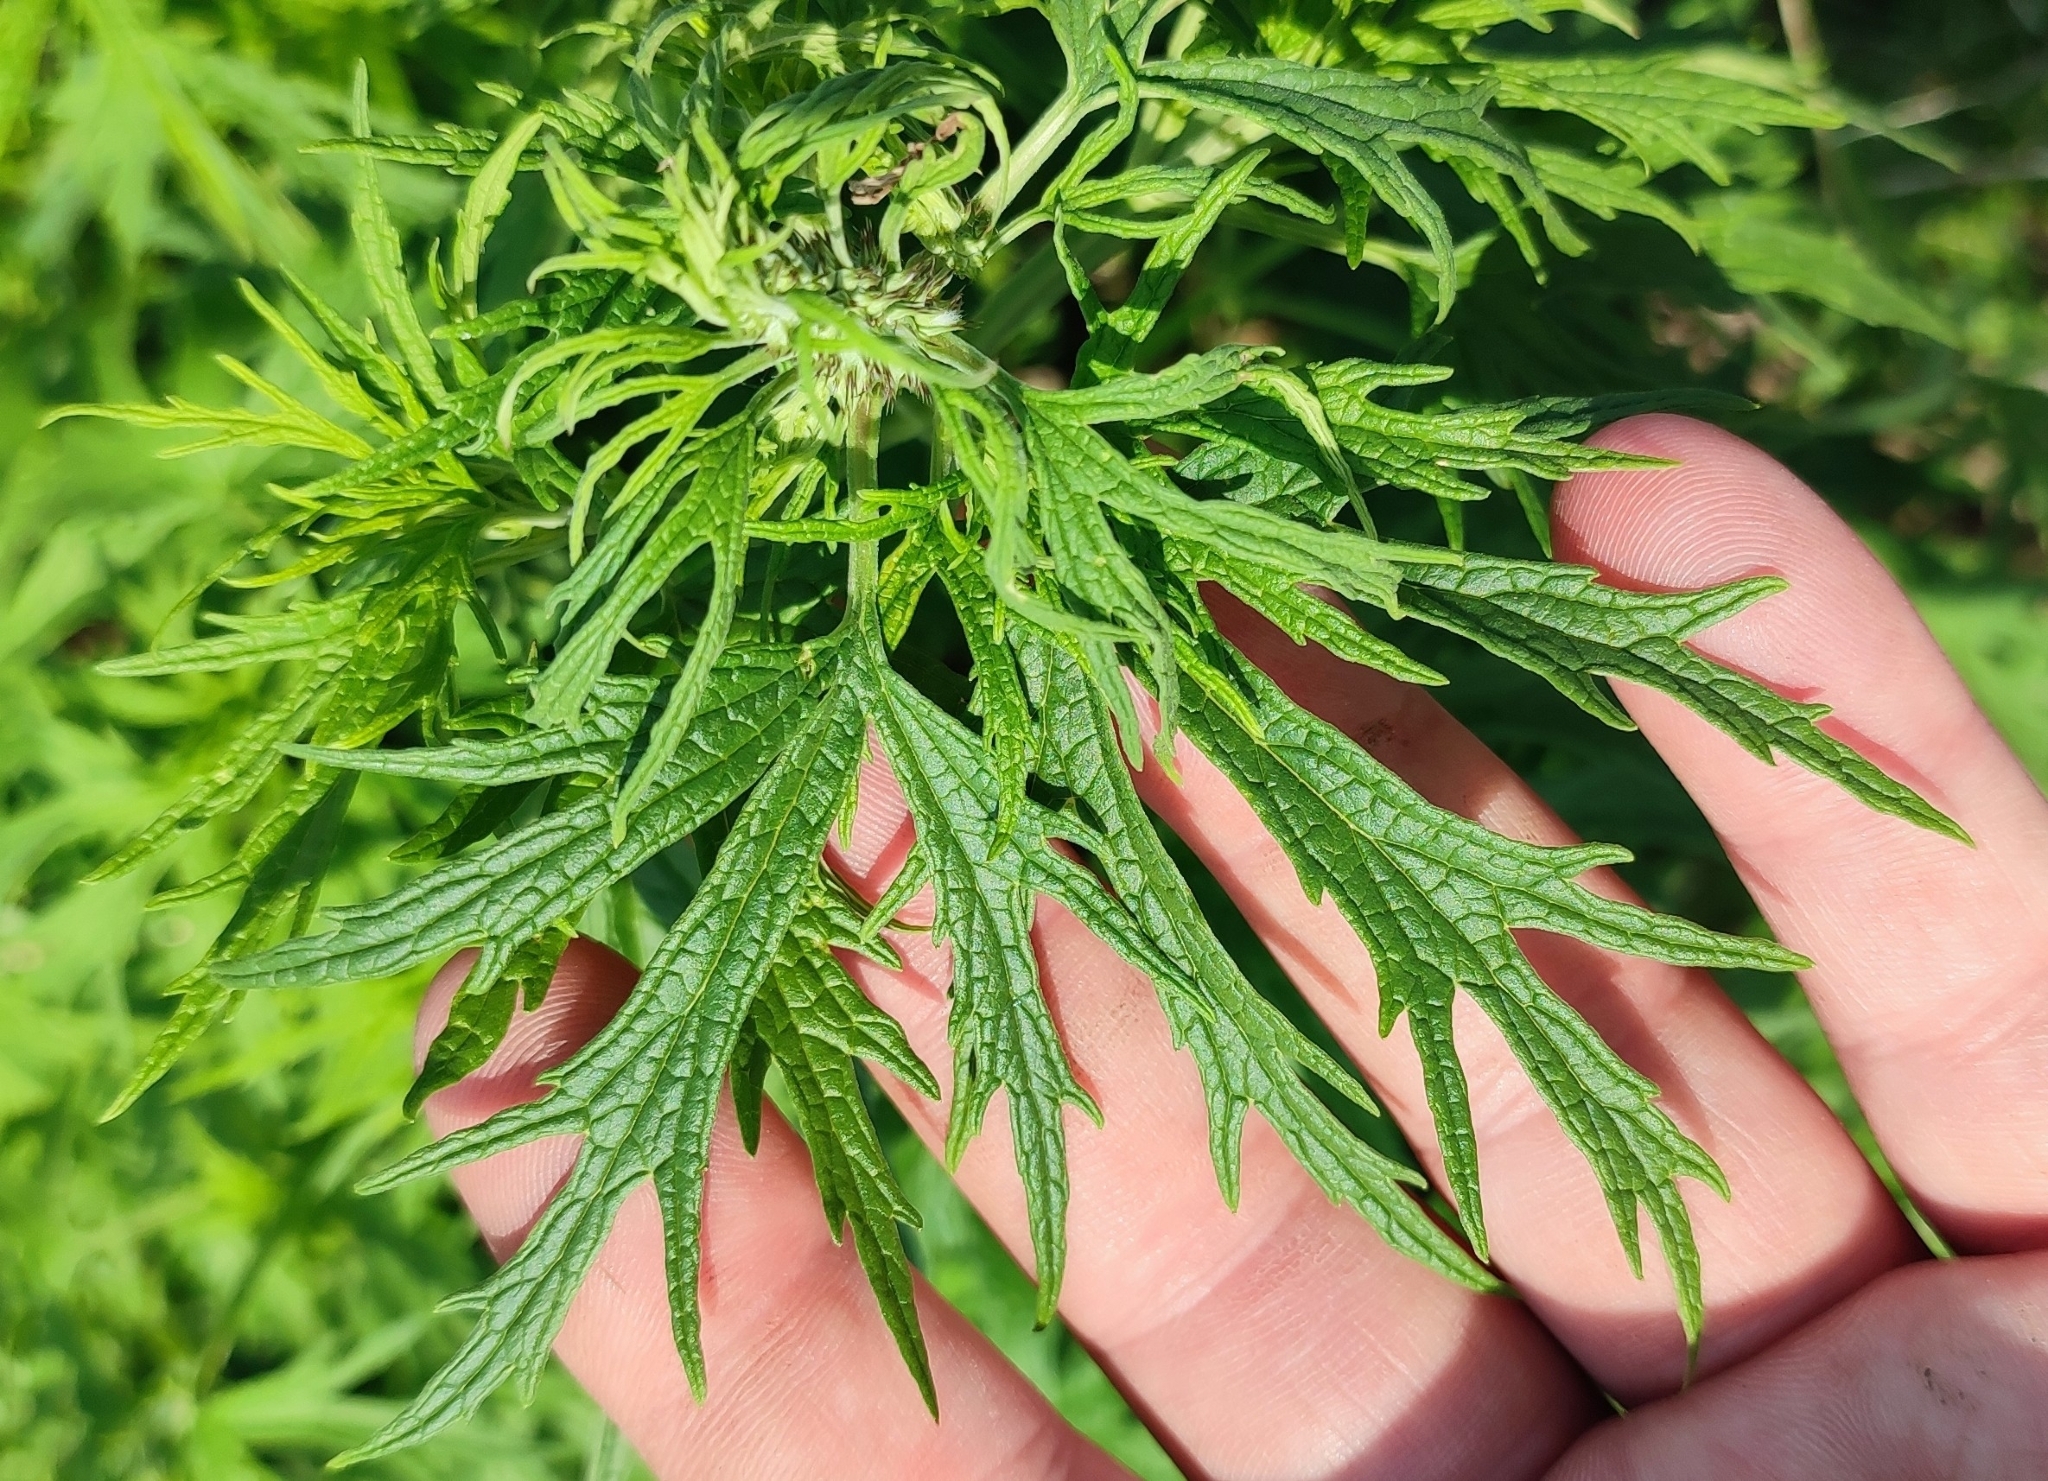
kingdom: Plantae
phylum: Tracheophyta
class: Magnoliopsida
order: Lamiales
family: Lamiaceae
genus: Leonurus
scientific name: Leonurus glaucescens
